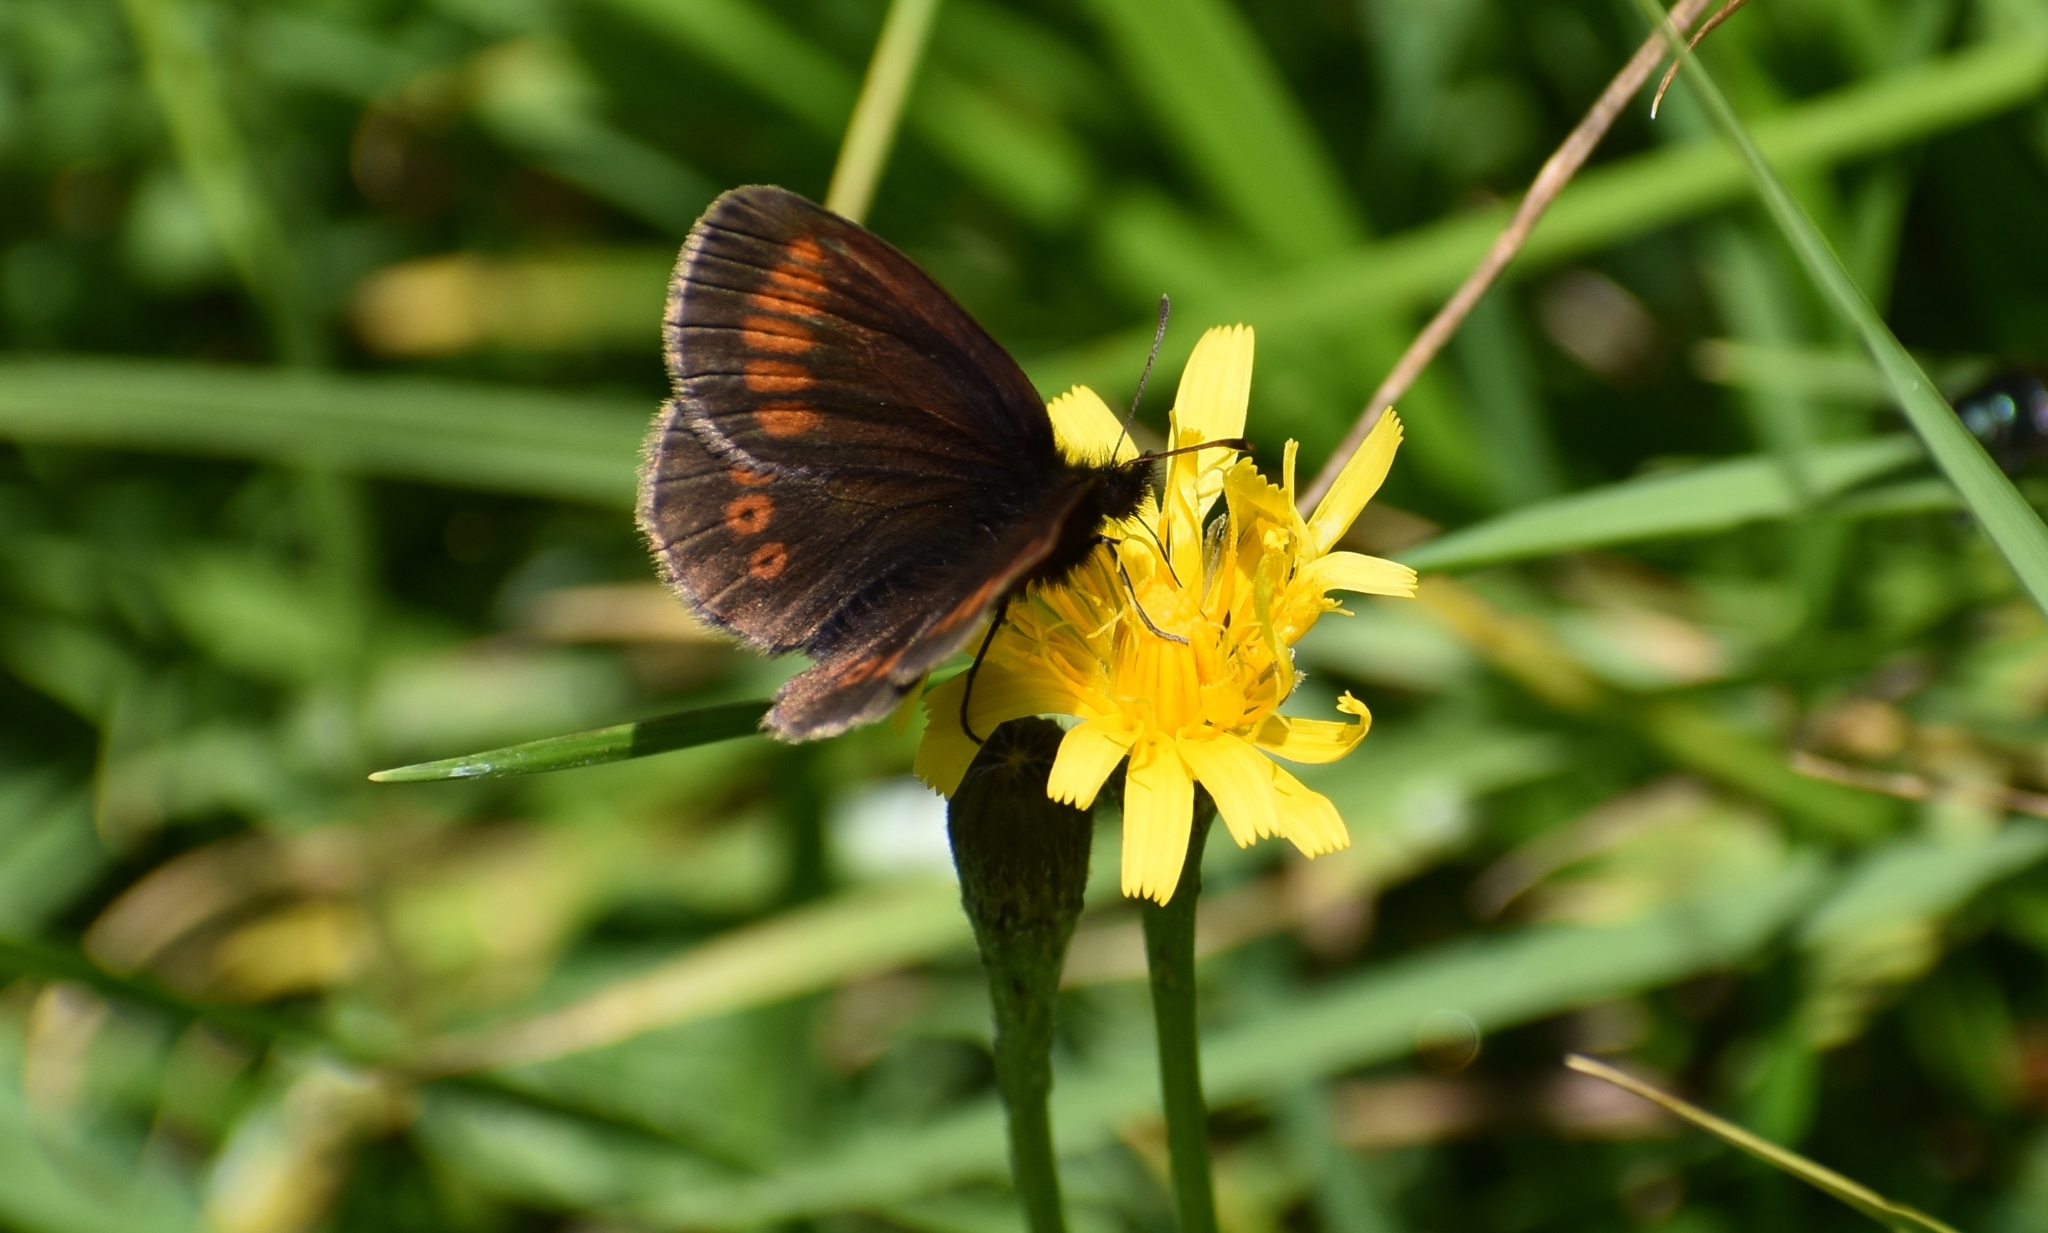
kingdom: Animalia
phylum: Arthropoda
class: Insecta
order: Lepidoptera
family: Nymphalidae
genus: Erebia
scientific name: Erebia melampus
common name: Lesser mountain ringlet
